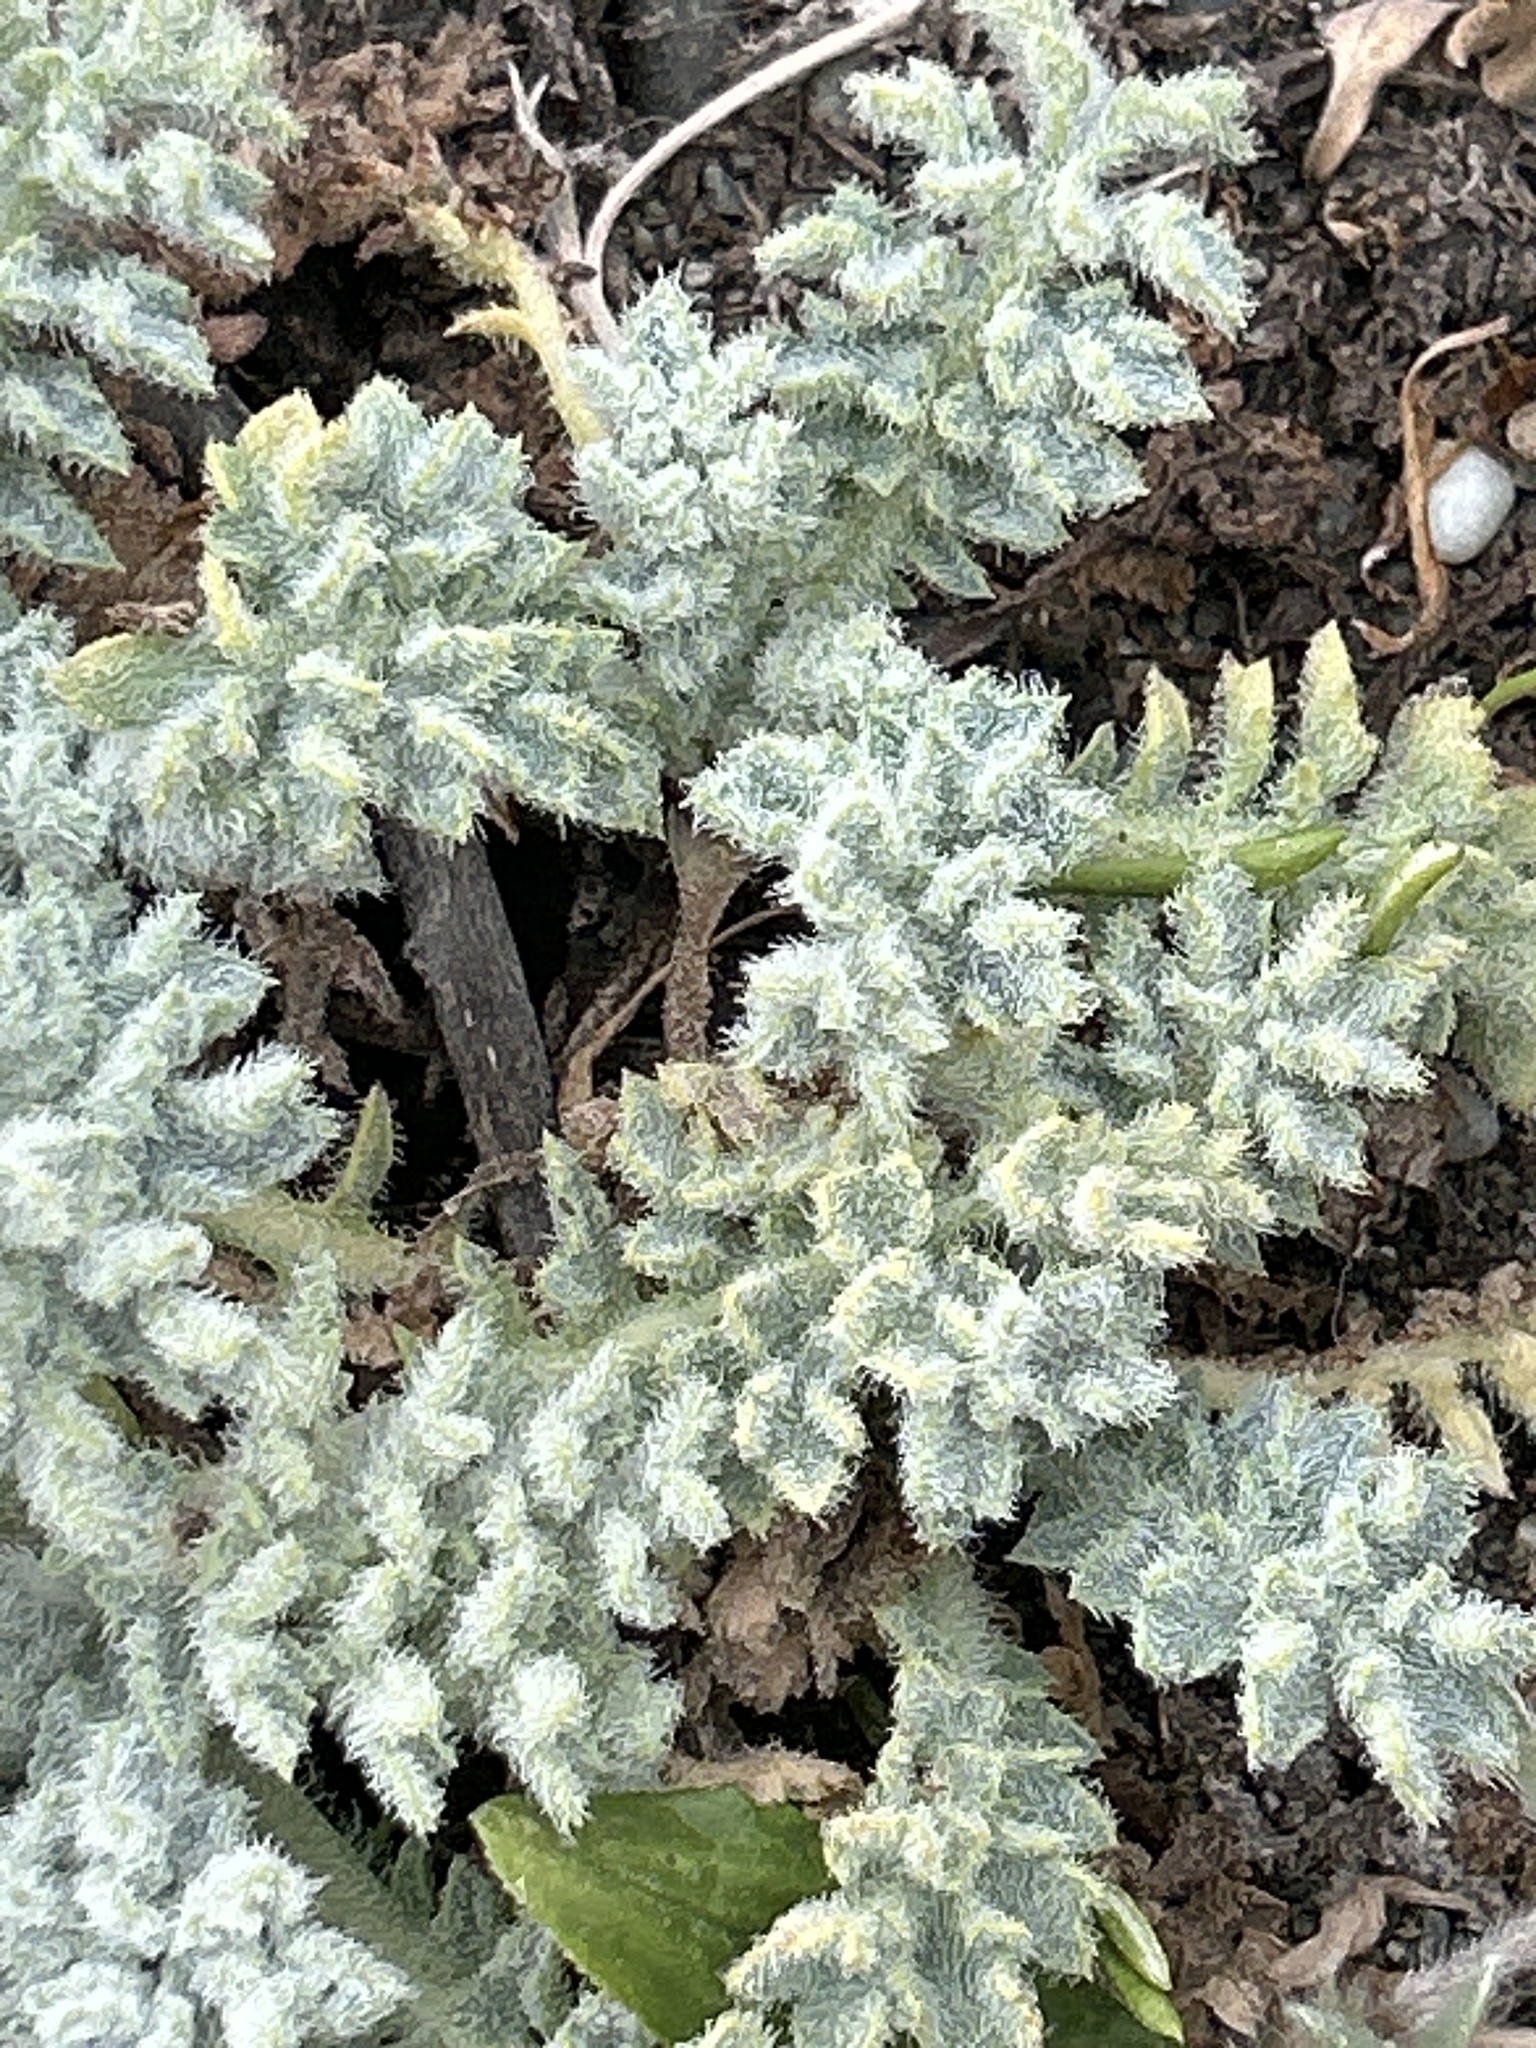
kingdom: Plantae
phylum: Tracheophyta
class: Magnoliopsida
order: Ranunculales
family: Papaveraceae
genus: Glaucium
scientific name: Glaucium flavum
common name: Yellow horned-poppy
